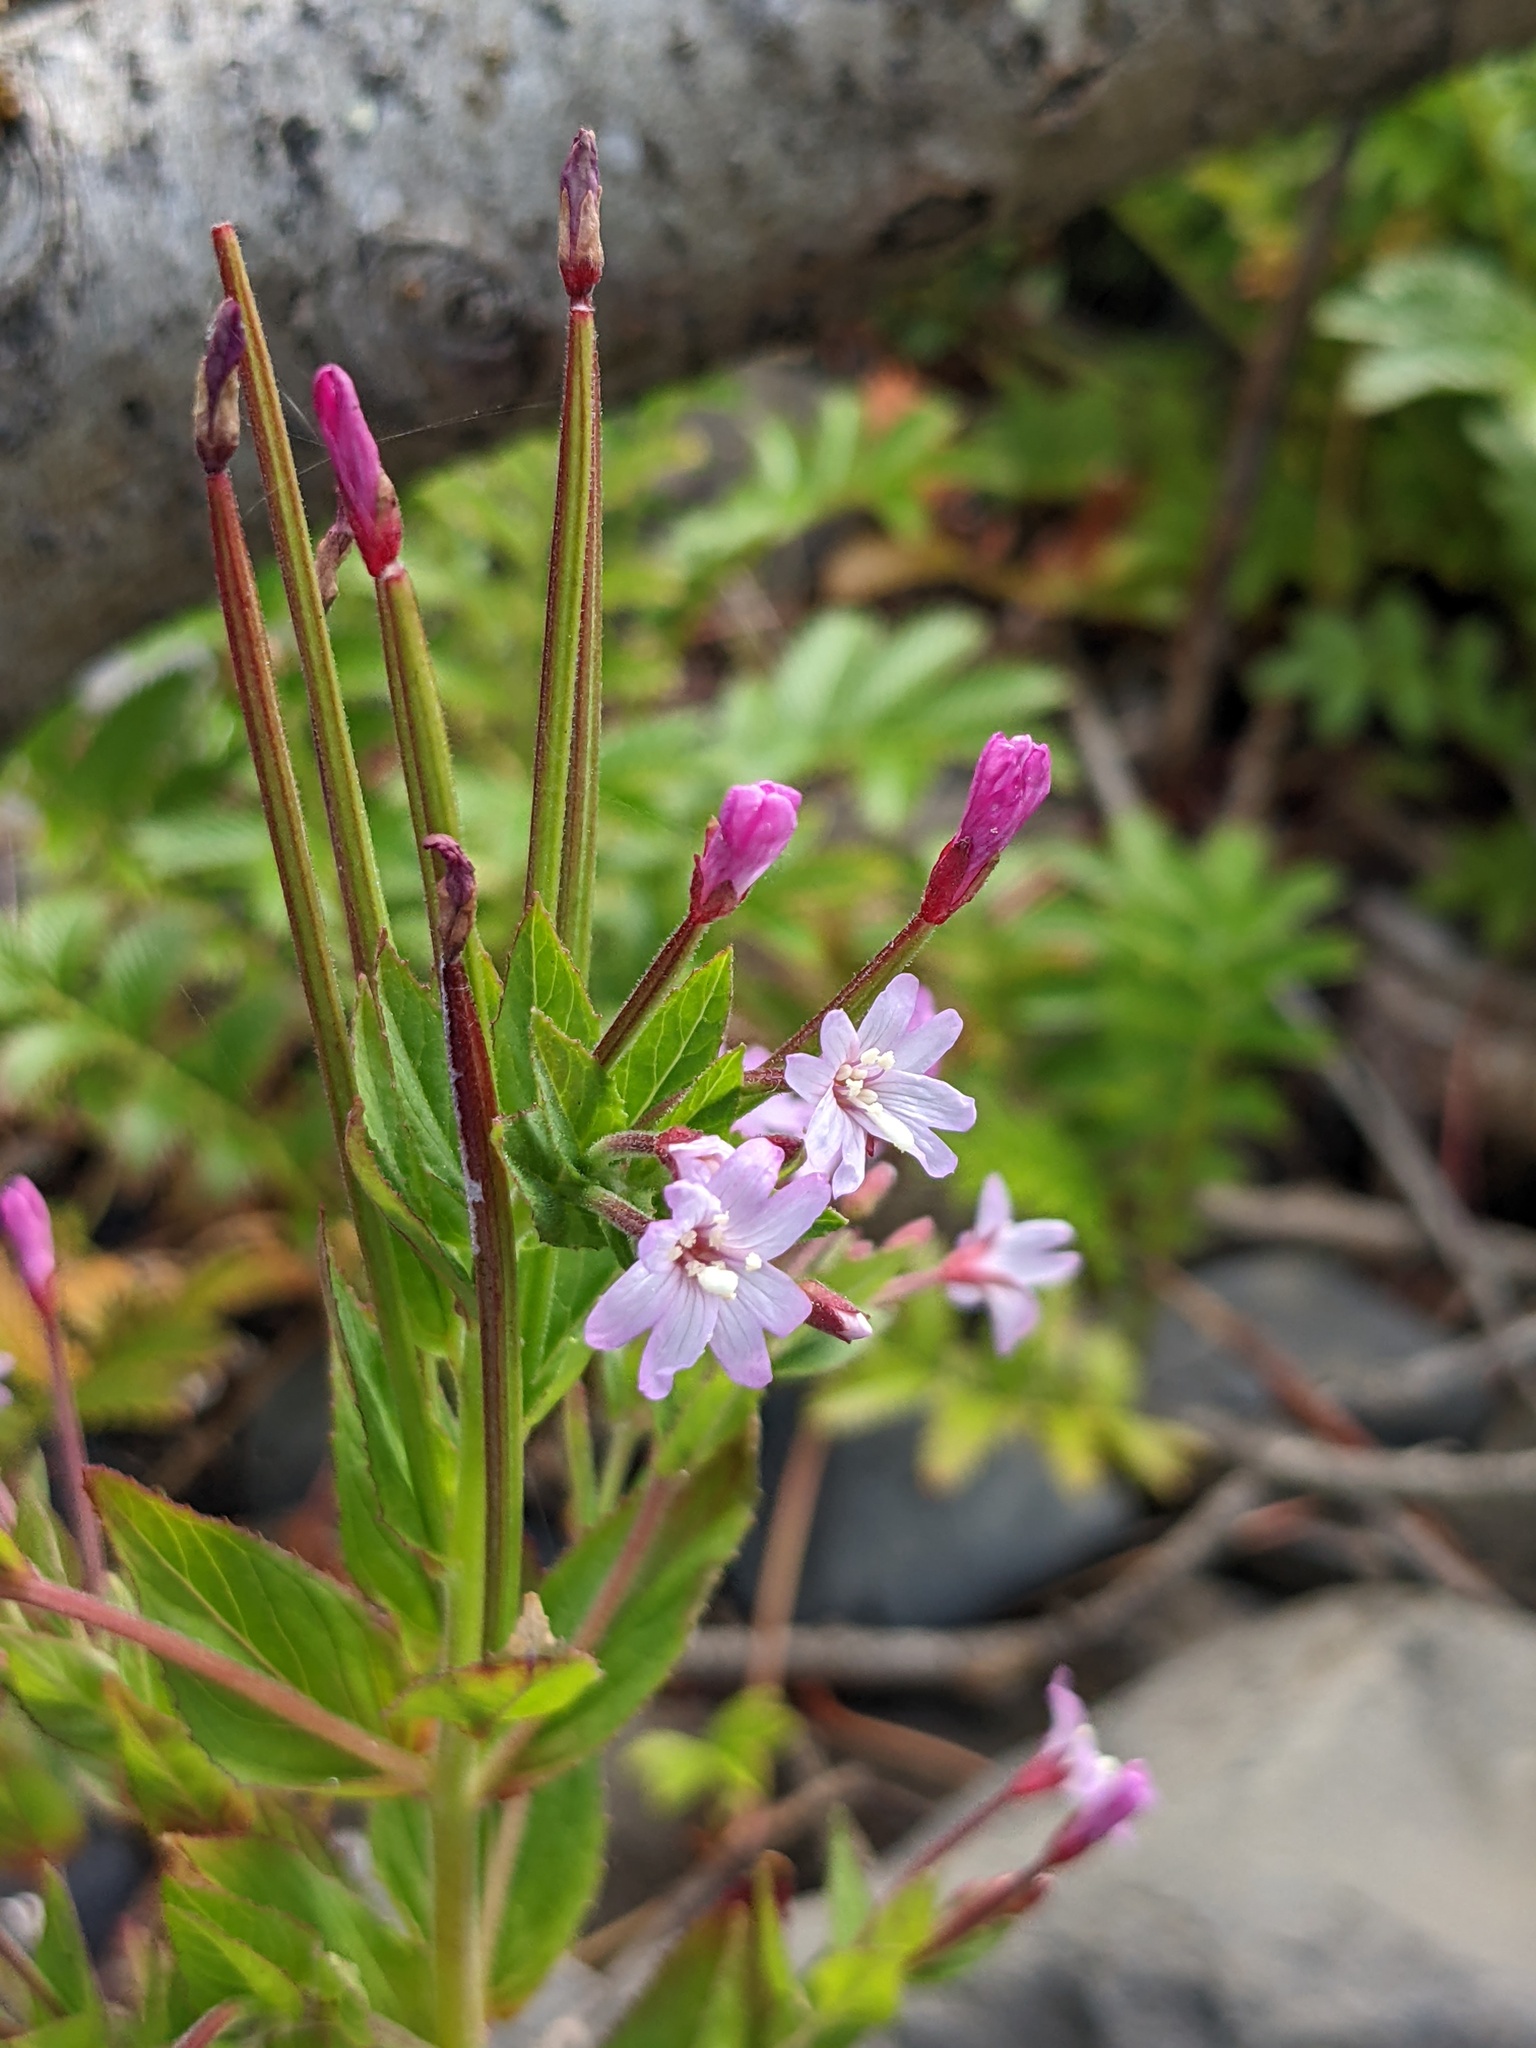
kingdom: Plantae
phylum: Tracheophyta
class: Magnoliopsida
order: Myrtales
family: Onagraceae
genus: Epilobium
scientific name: Epilobium ciliatum
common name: American willowherb
